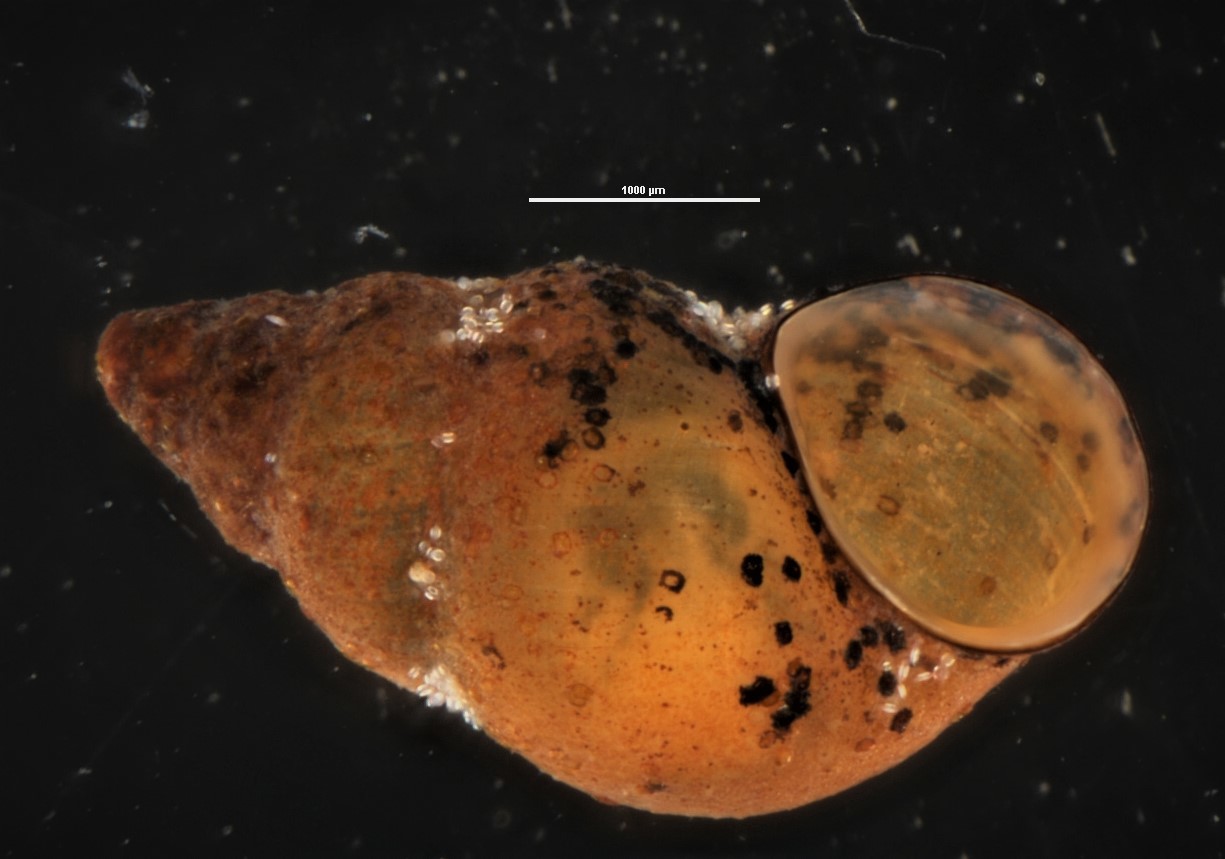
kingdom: Animalia
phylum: Mollusca
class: Gastropoda
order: Littorinimorpha
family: Tateidae
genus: Potamopyrgus
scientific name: Potamopyrgus estuarinus
